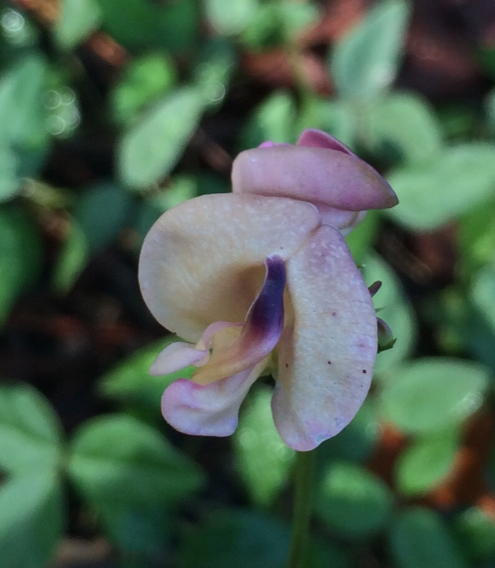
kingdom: Plantae
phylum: Tracheophyta
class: Magnoliopsida
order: Fabales
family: Fabaceae
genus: Strophostyles
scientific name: Strophostyles umbellata
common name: Perennial wild bean
